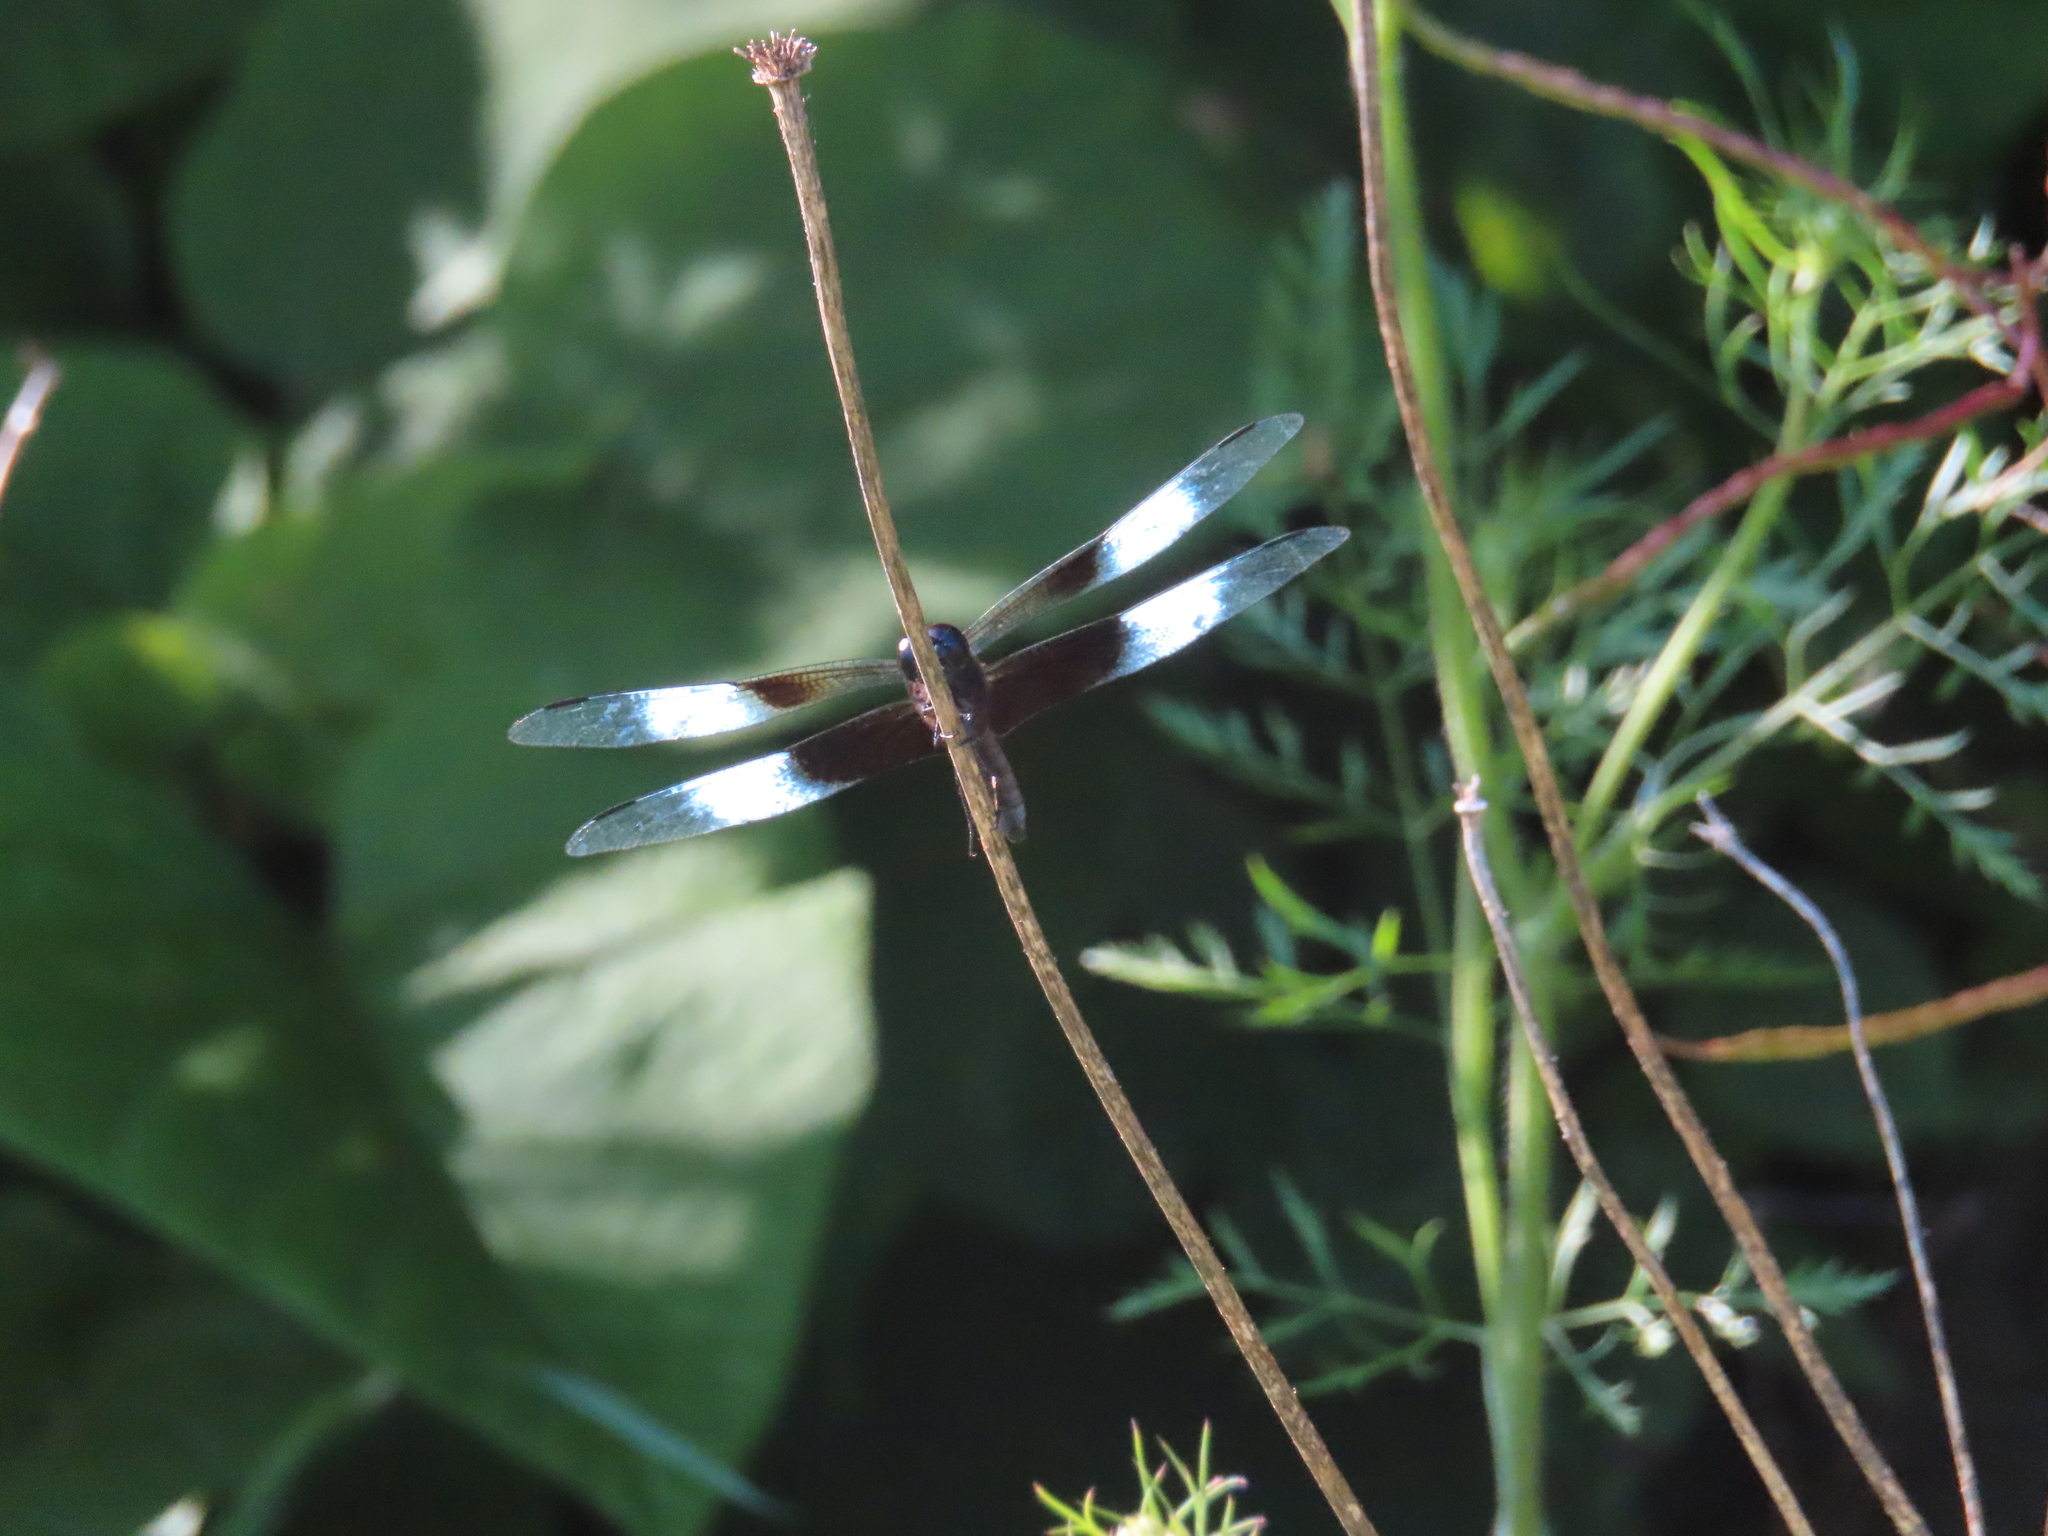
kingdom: Animalia
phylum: Arthropoda
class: Insecta
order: Odonata
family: Libellulidae
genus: Libellula
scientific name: Libellula luctuosa
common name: Widow skimmer
